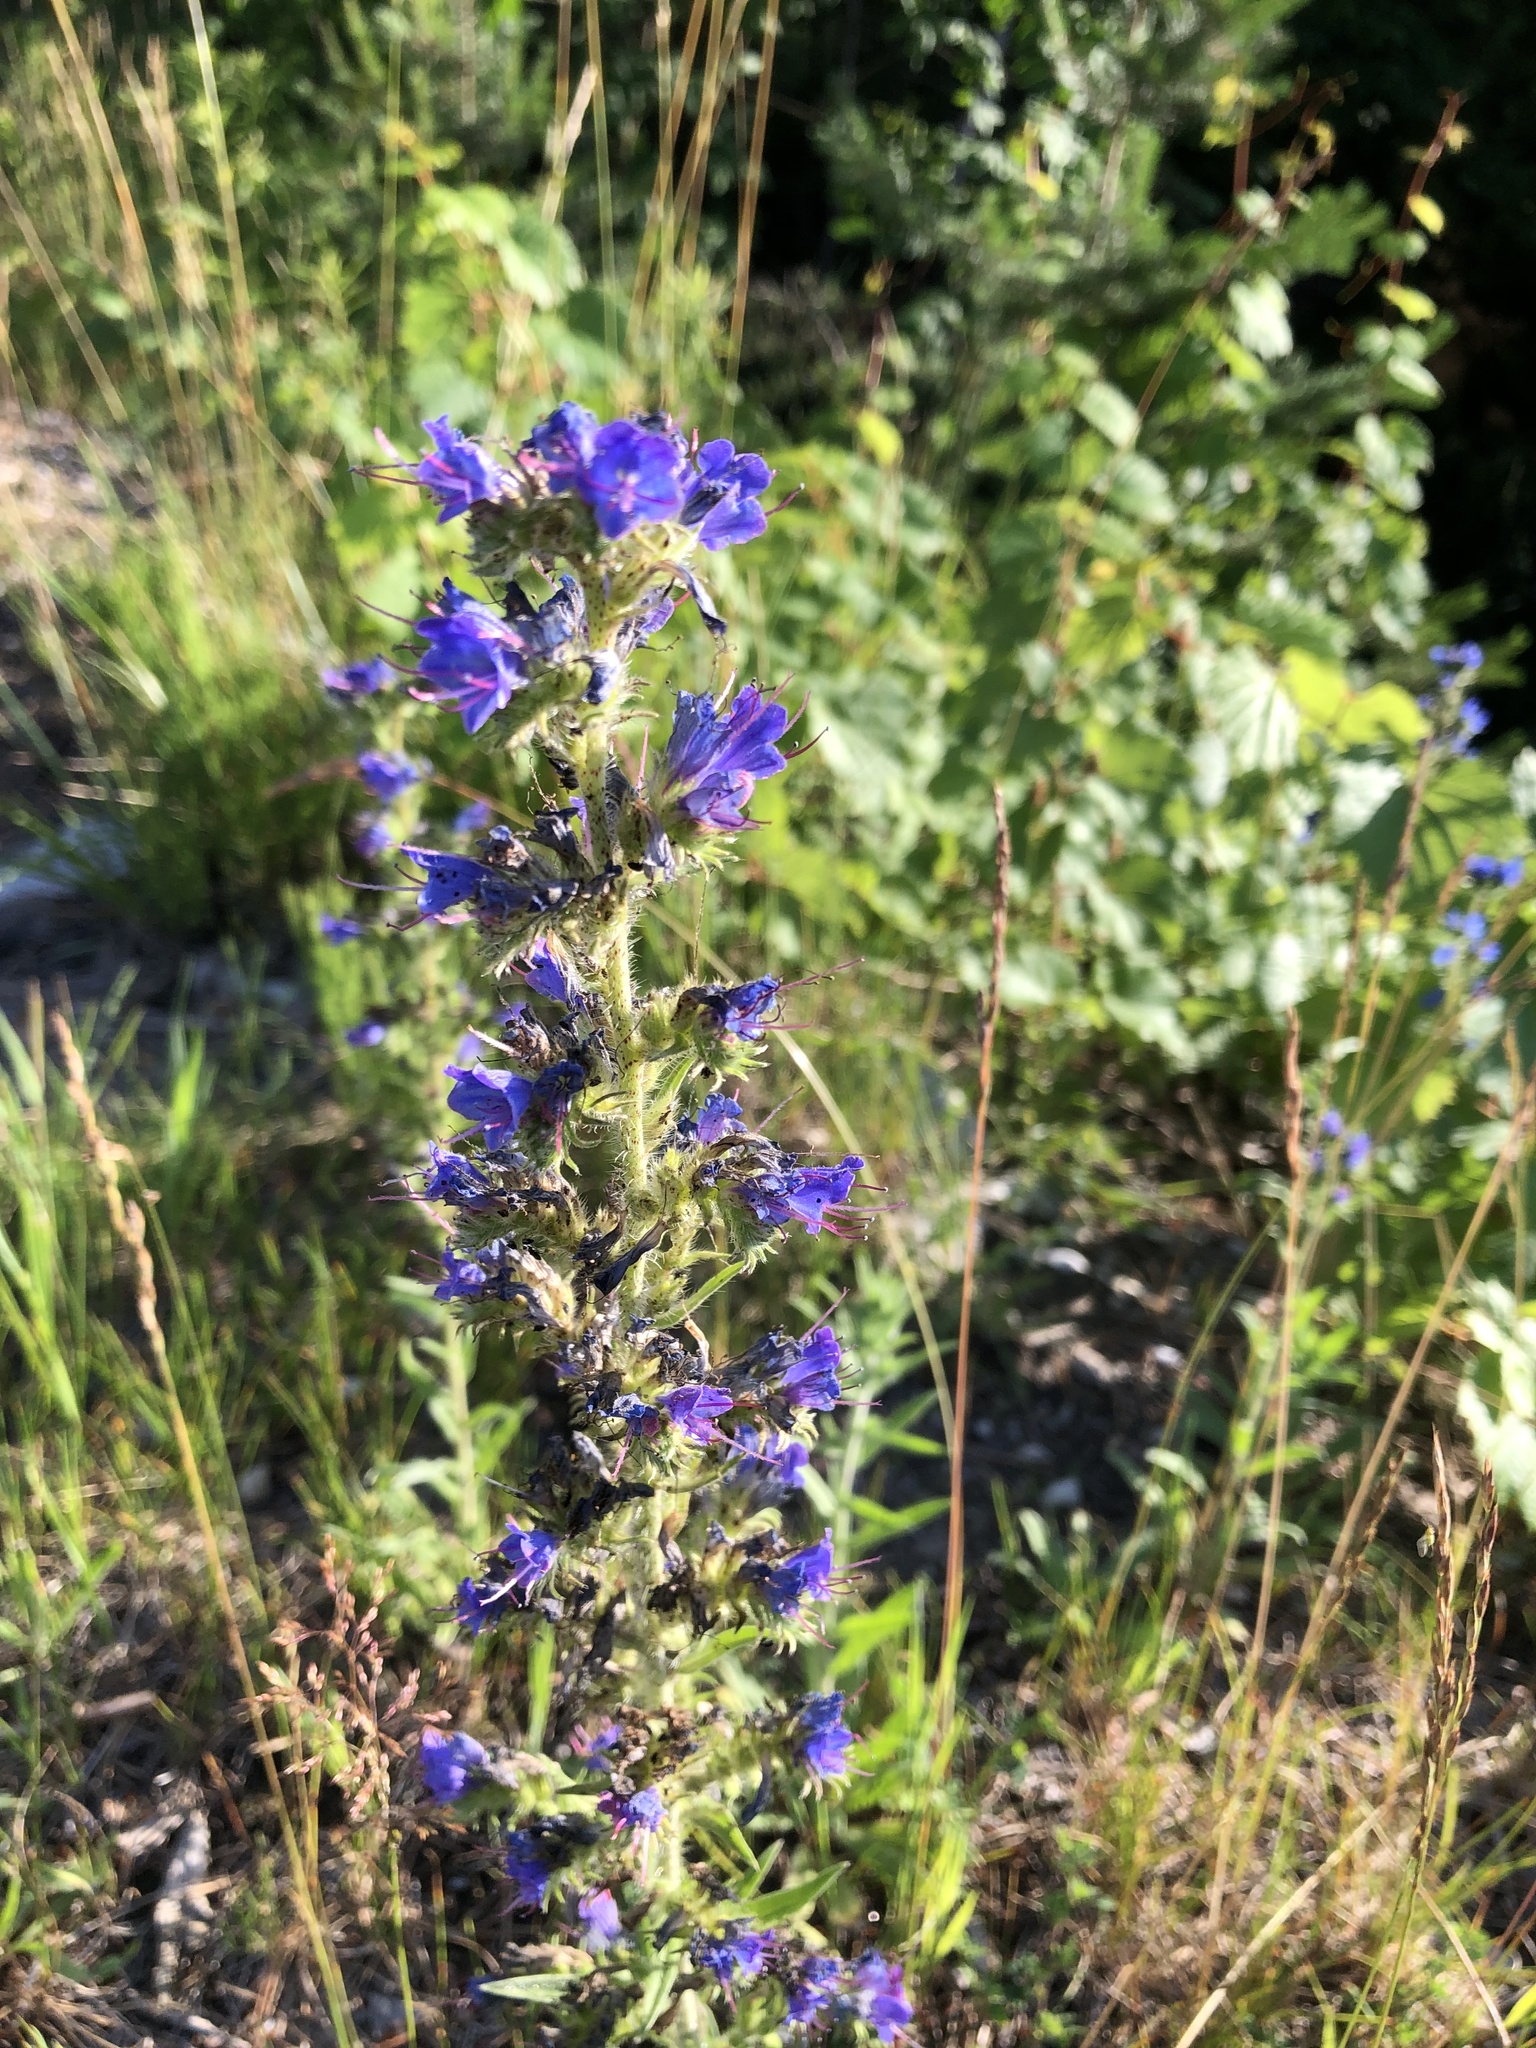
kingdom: Plantae
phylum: Tracheophyta
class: Magnoliopsida
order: Boraginales
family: Boraginaceae
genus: Echium
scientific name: Echium vulgare
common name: Common viper's bugloss
